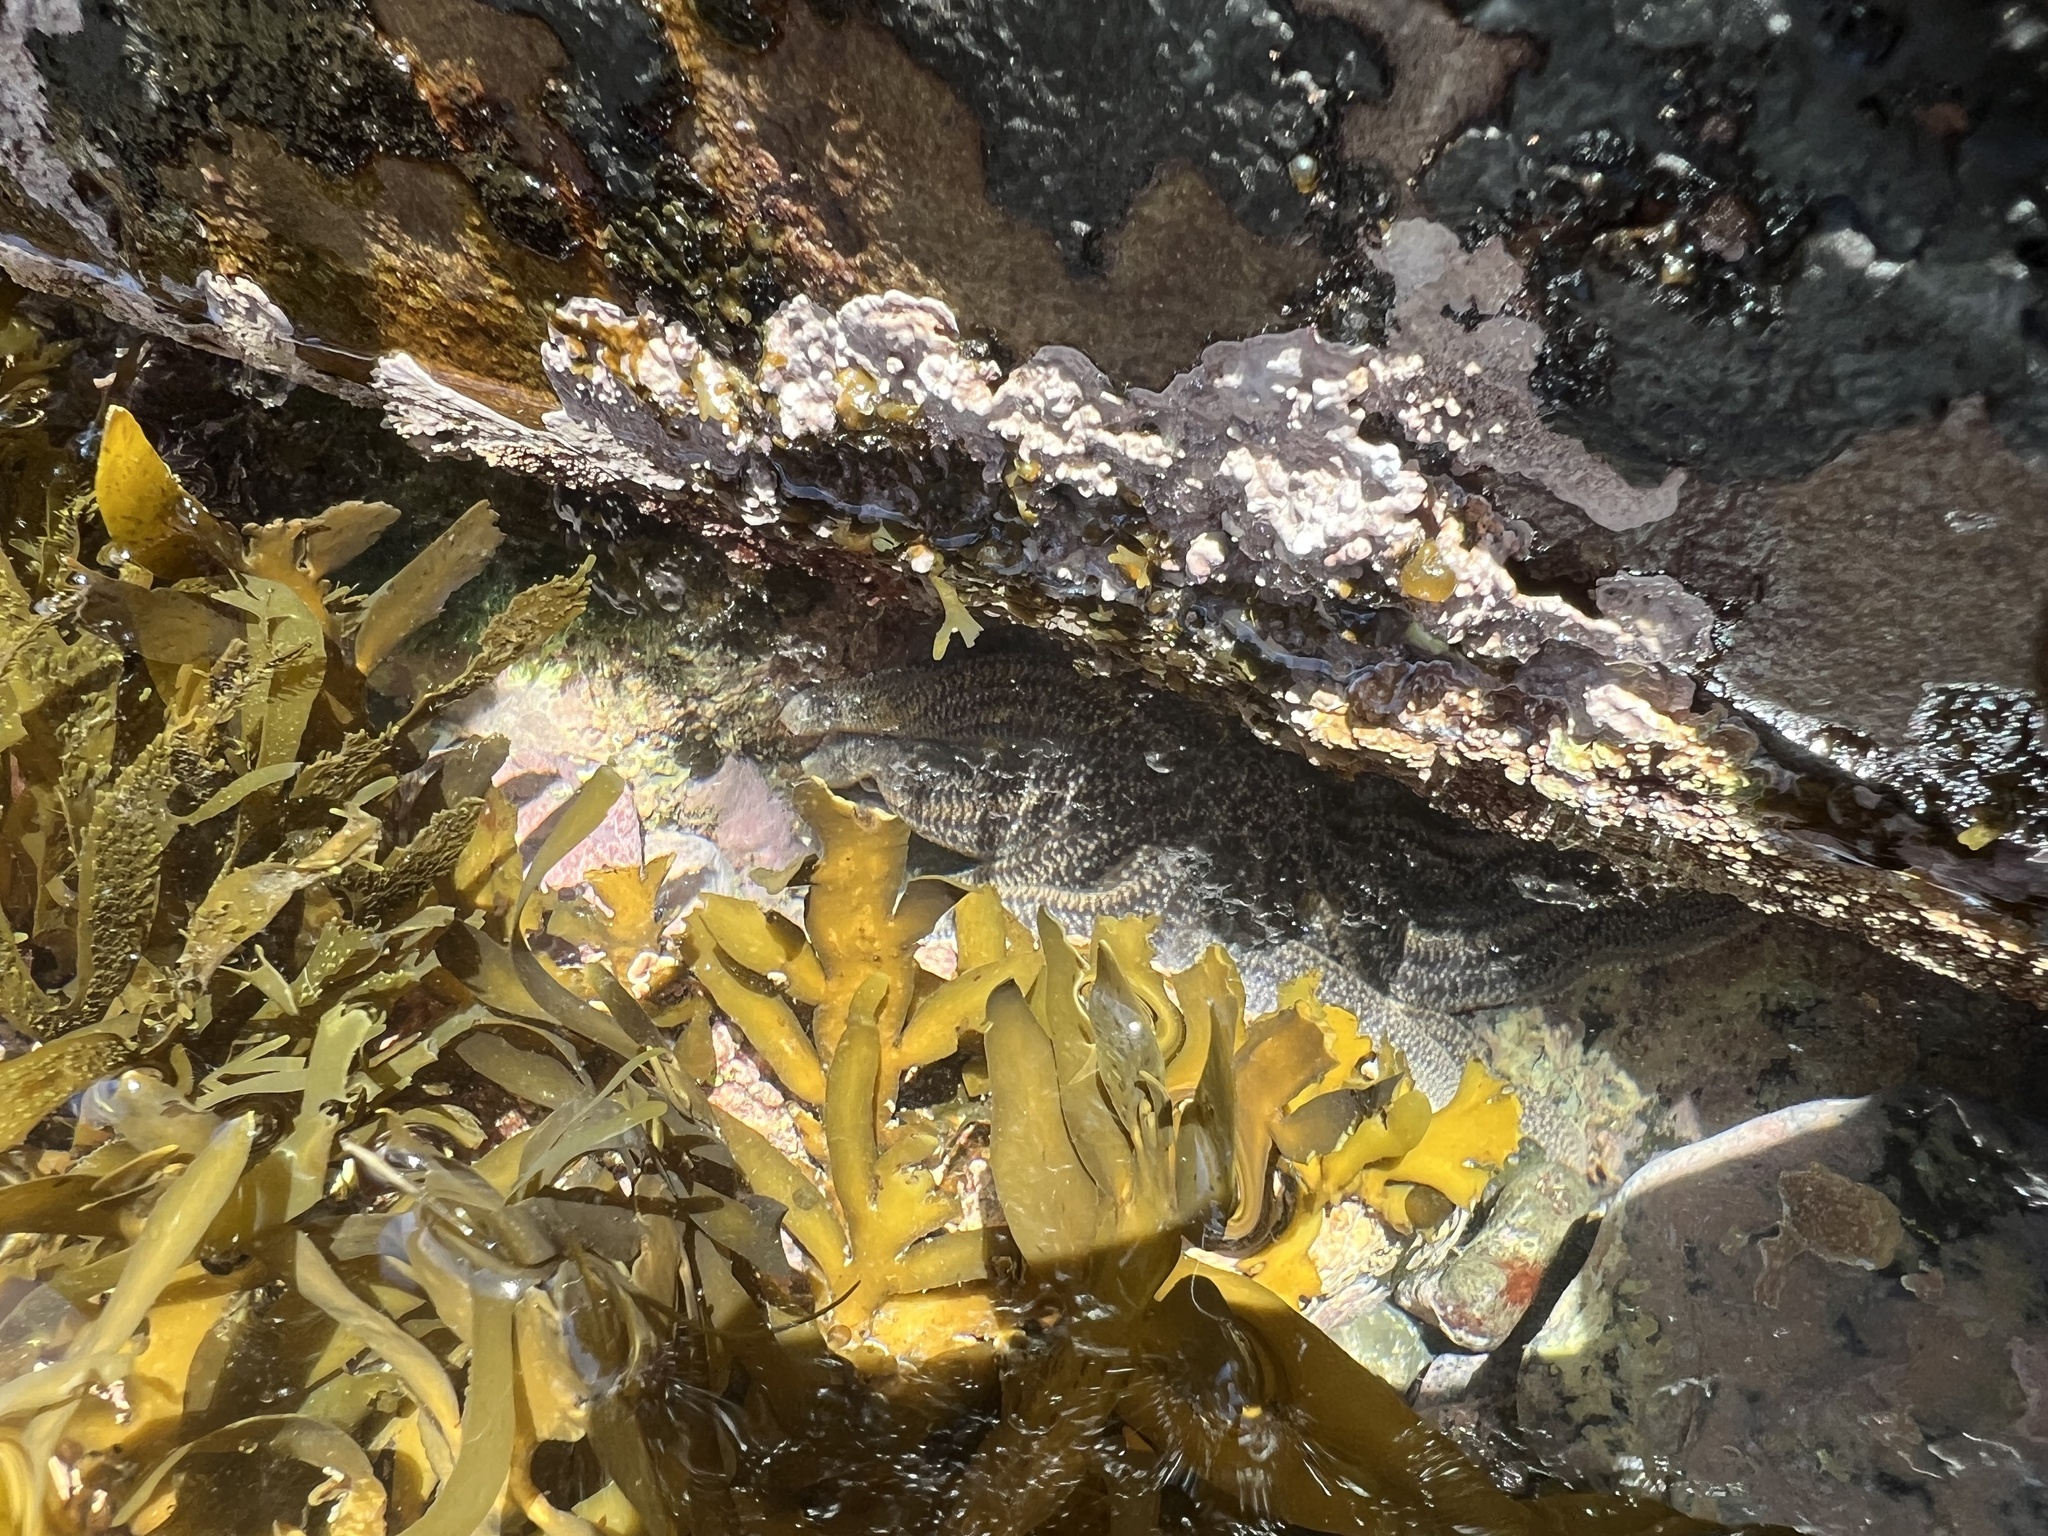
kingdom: Animalia
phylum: Echinodermata
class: Asteroidea
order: Forcipulatida
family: Stichasteridae
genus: Stichaster
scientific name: Stichaster australis
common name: Reef starfish
